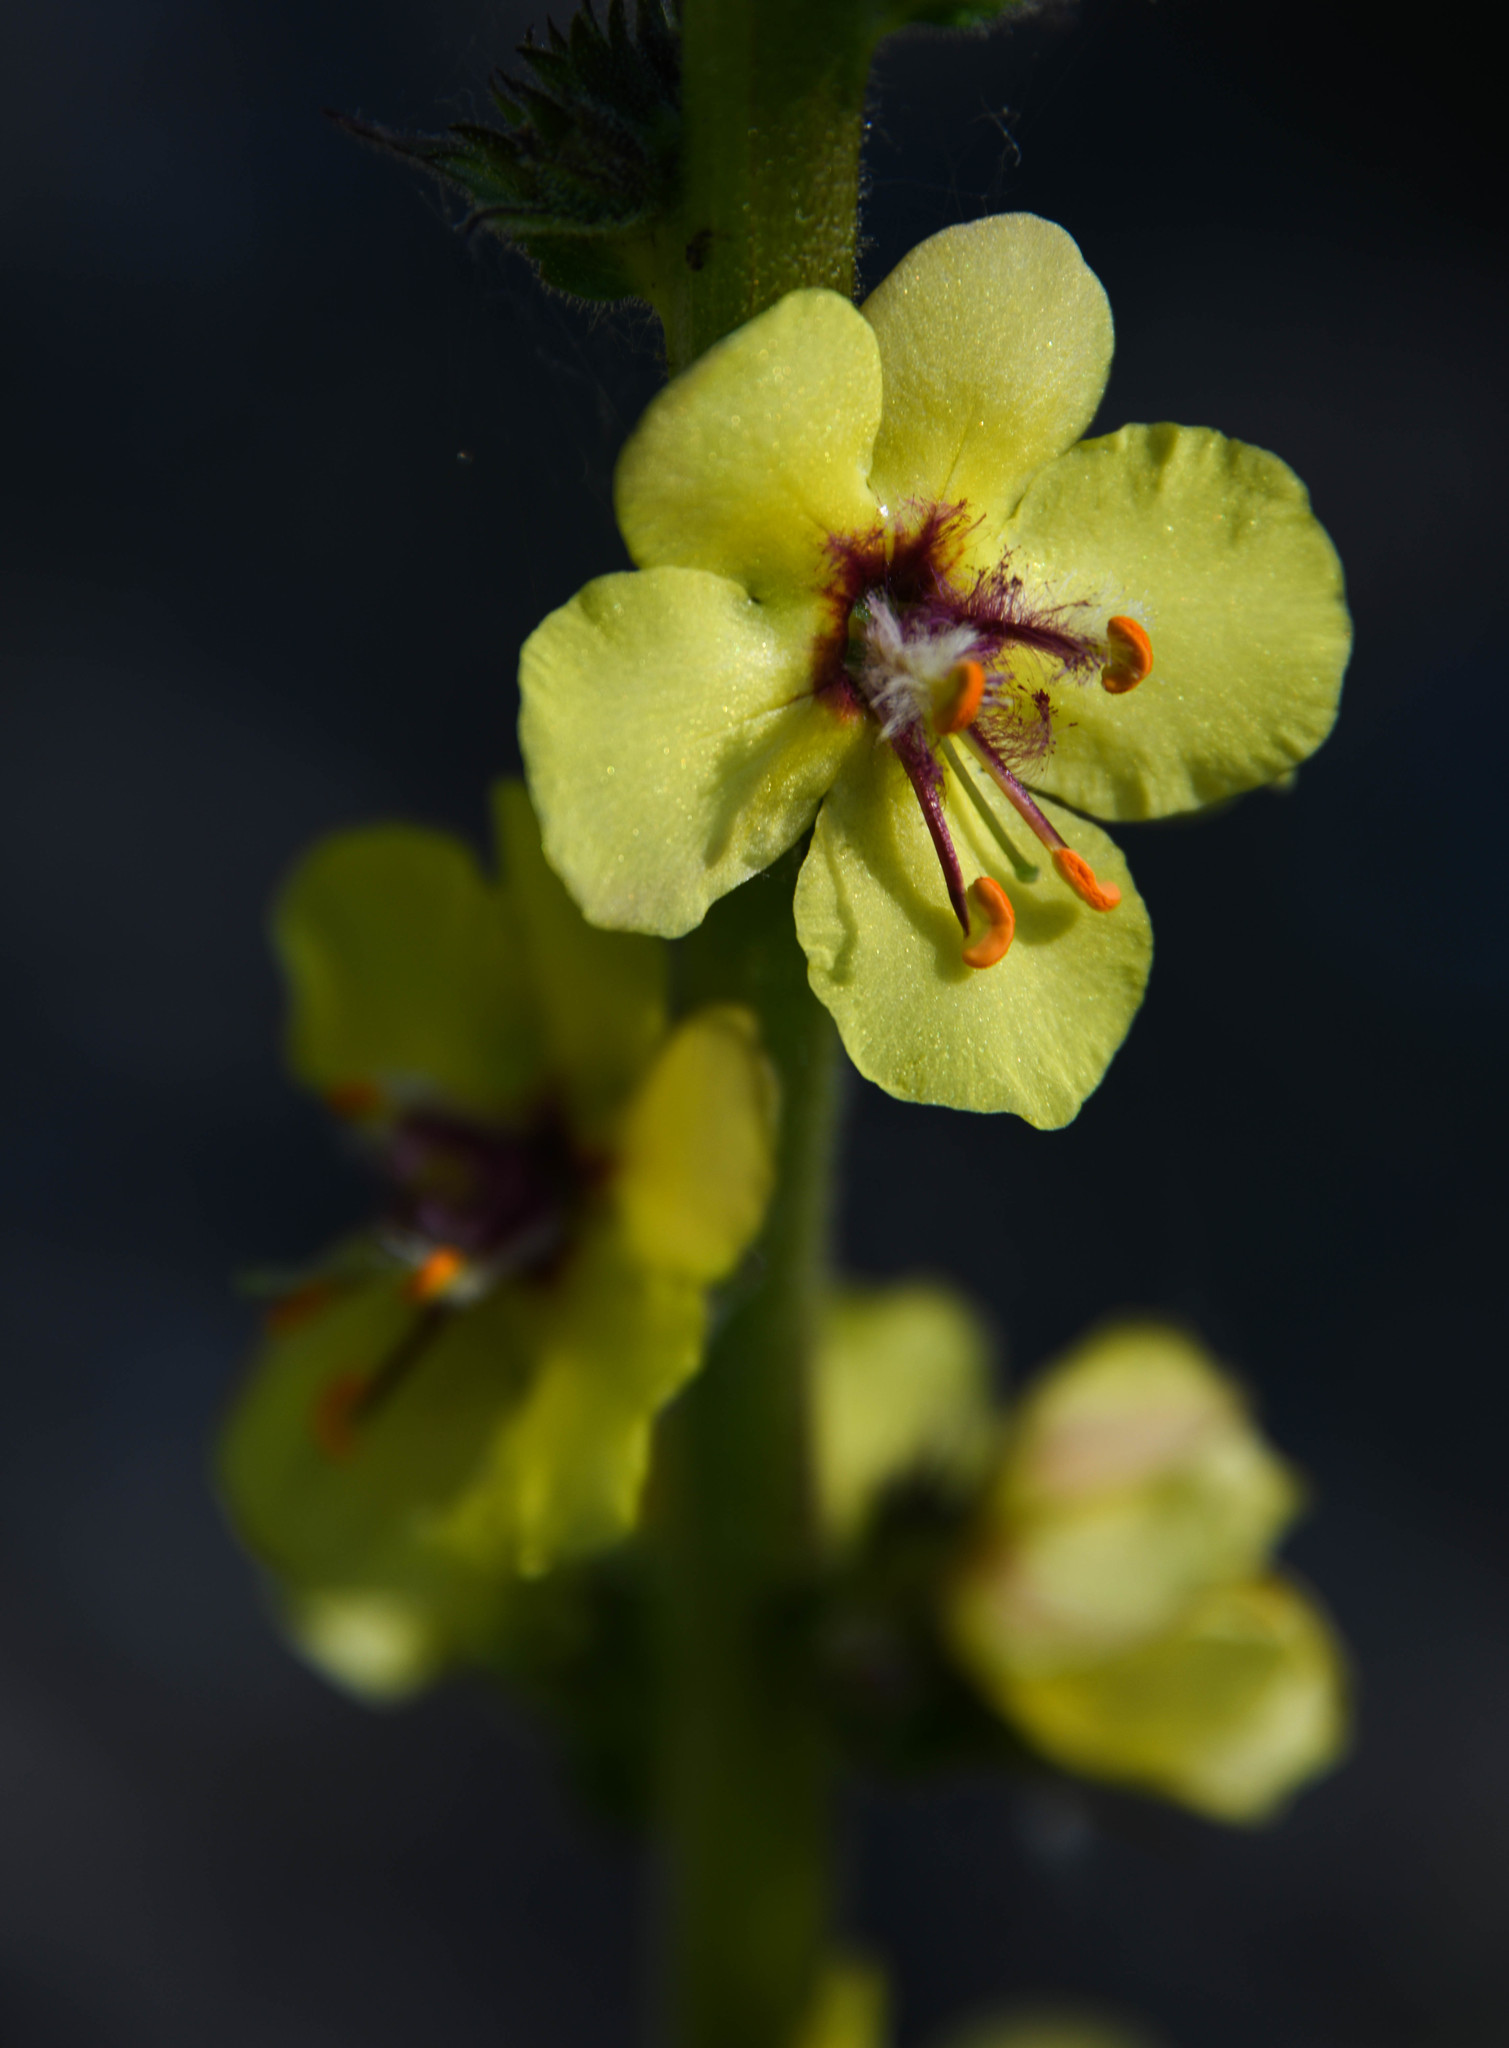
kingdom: Plantae
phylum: Tracheophyta
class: Magnoliopsida
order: Lamiales
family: Scrophulariaceae
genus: Verbascum
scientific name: Verbascum virgatum
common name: Twiggy mullein
